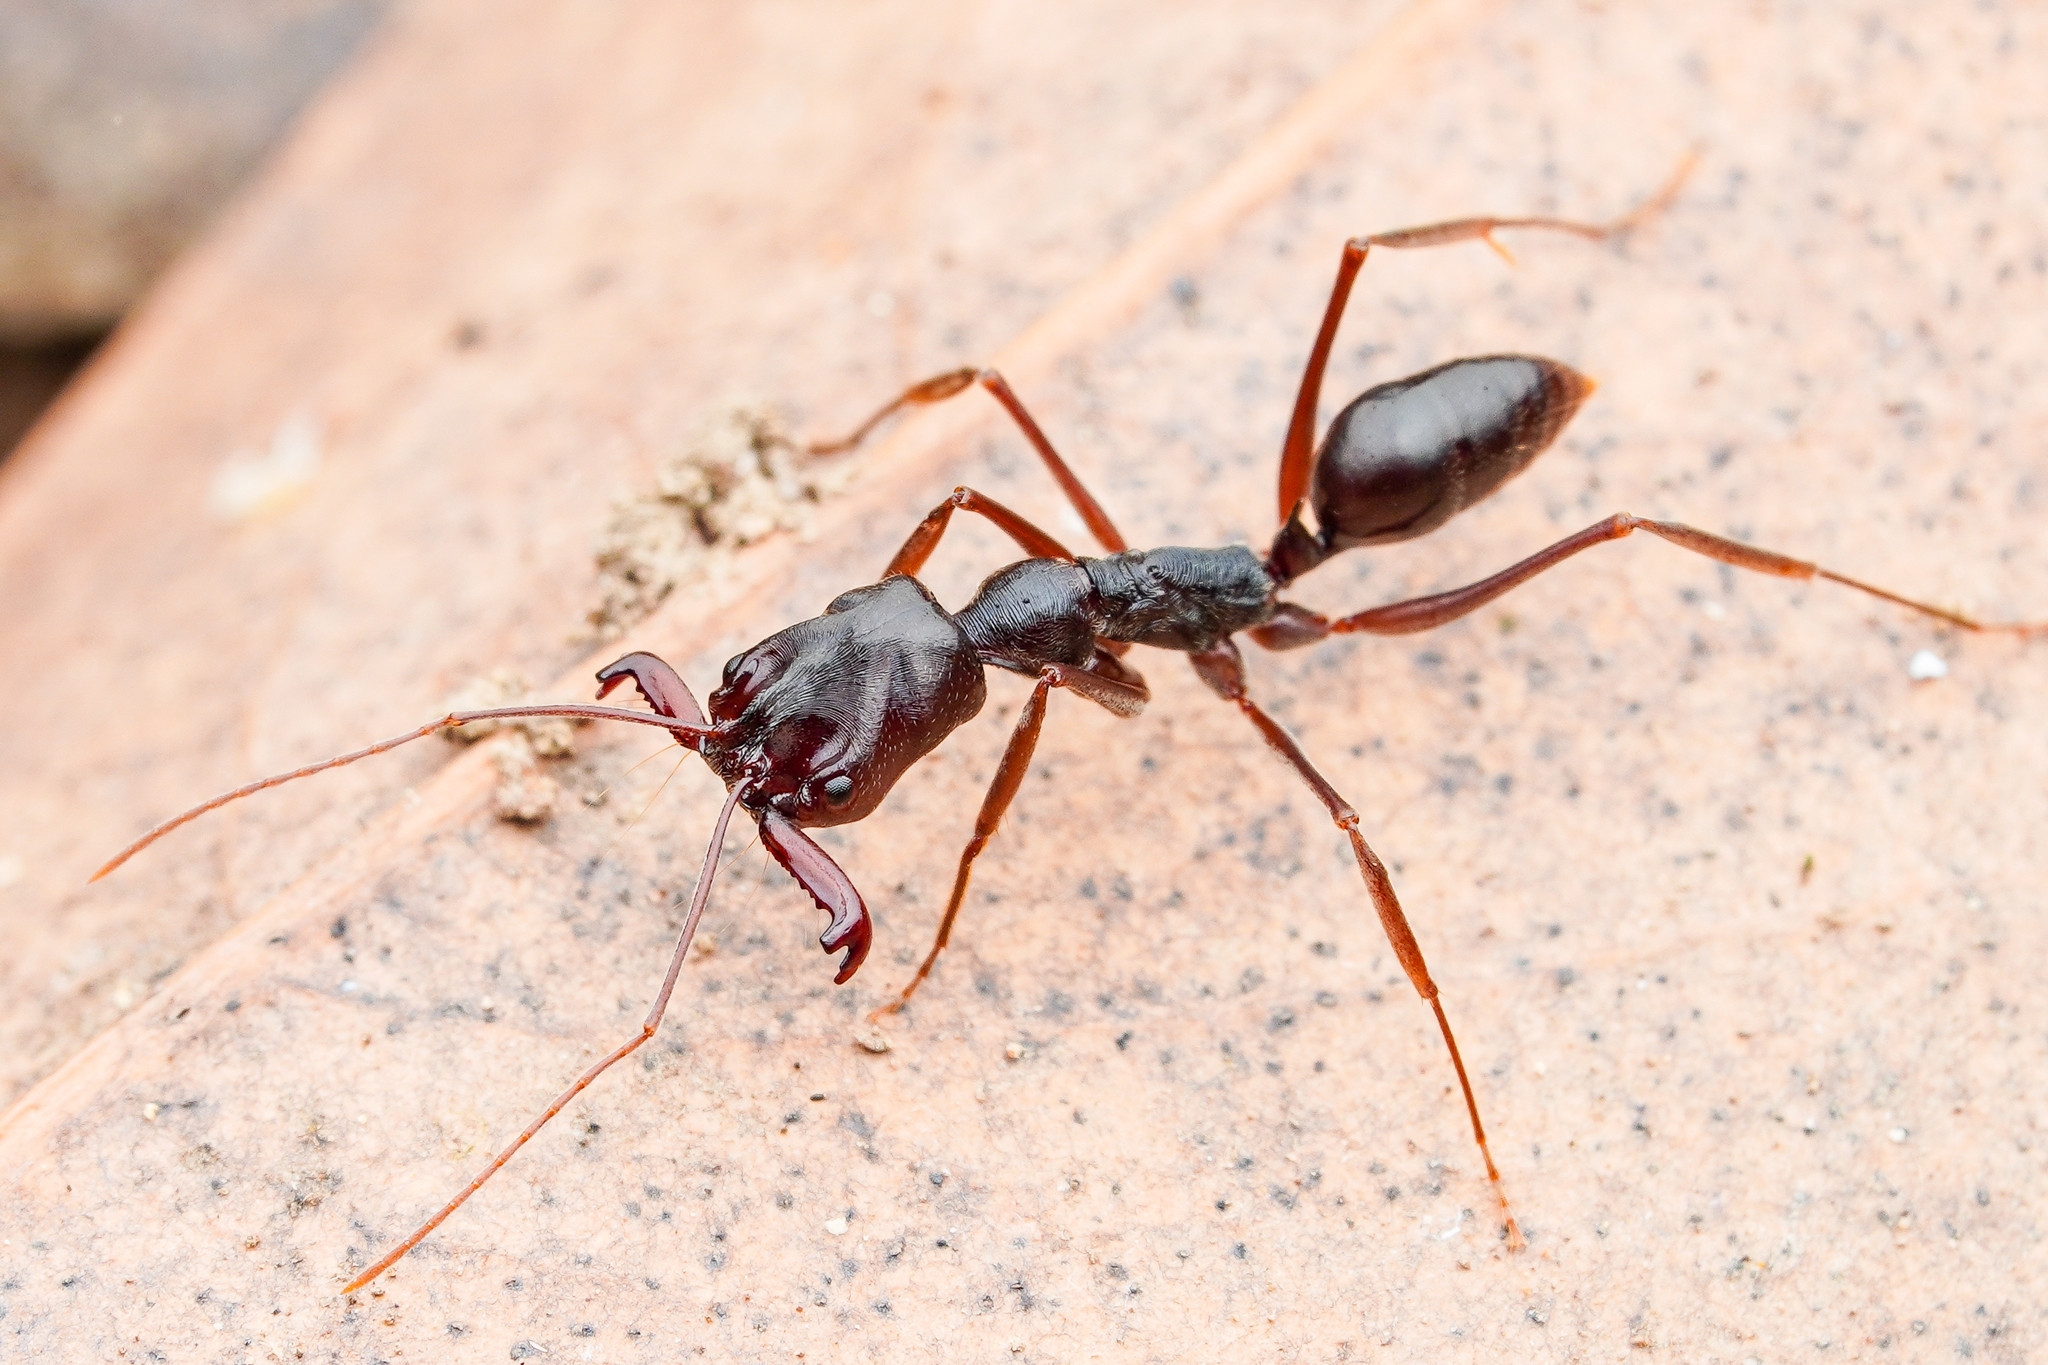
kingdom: Animalia
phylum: Arthropoda
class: Insecta
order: Hymenoptera
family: Formicidae
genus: Odontomachus
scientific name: Odontomachus monticola
